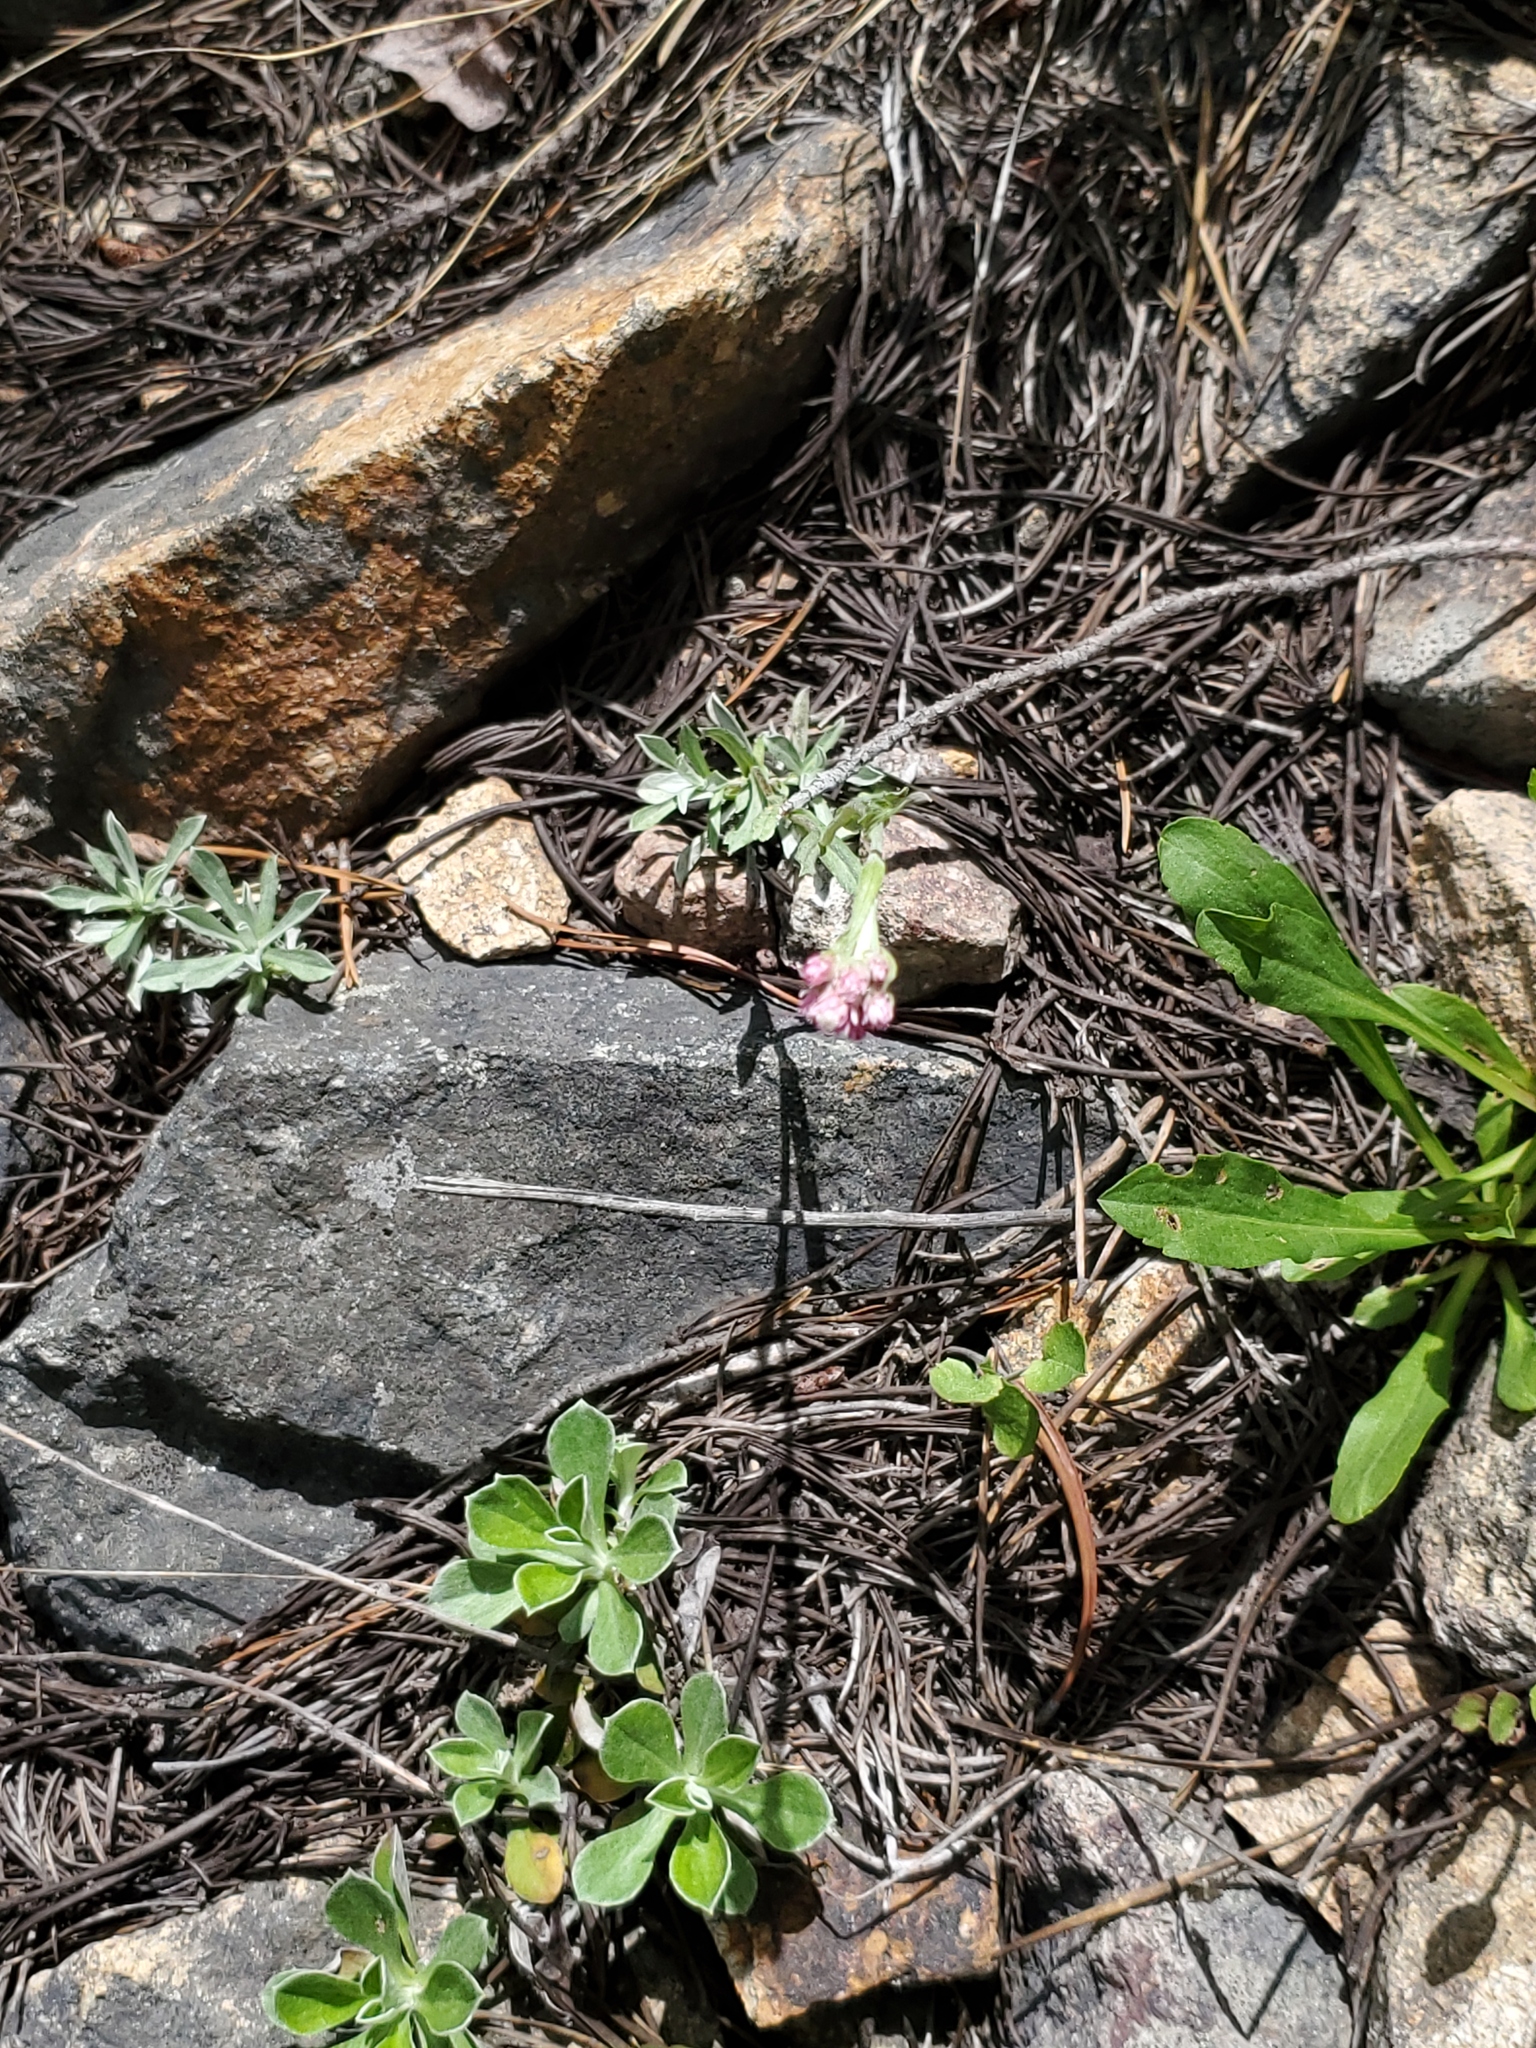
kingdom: Plantae
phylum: Tracheophyta
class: Magnoliopsida
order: Asterales
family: Asteraceae
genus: Antennaria
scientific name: Antennaria rosea
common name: Rosy pussytoes
